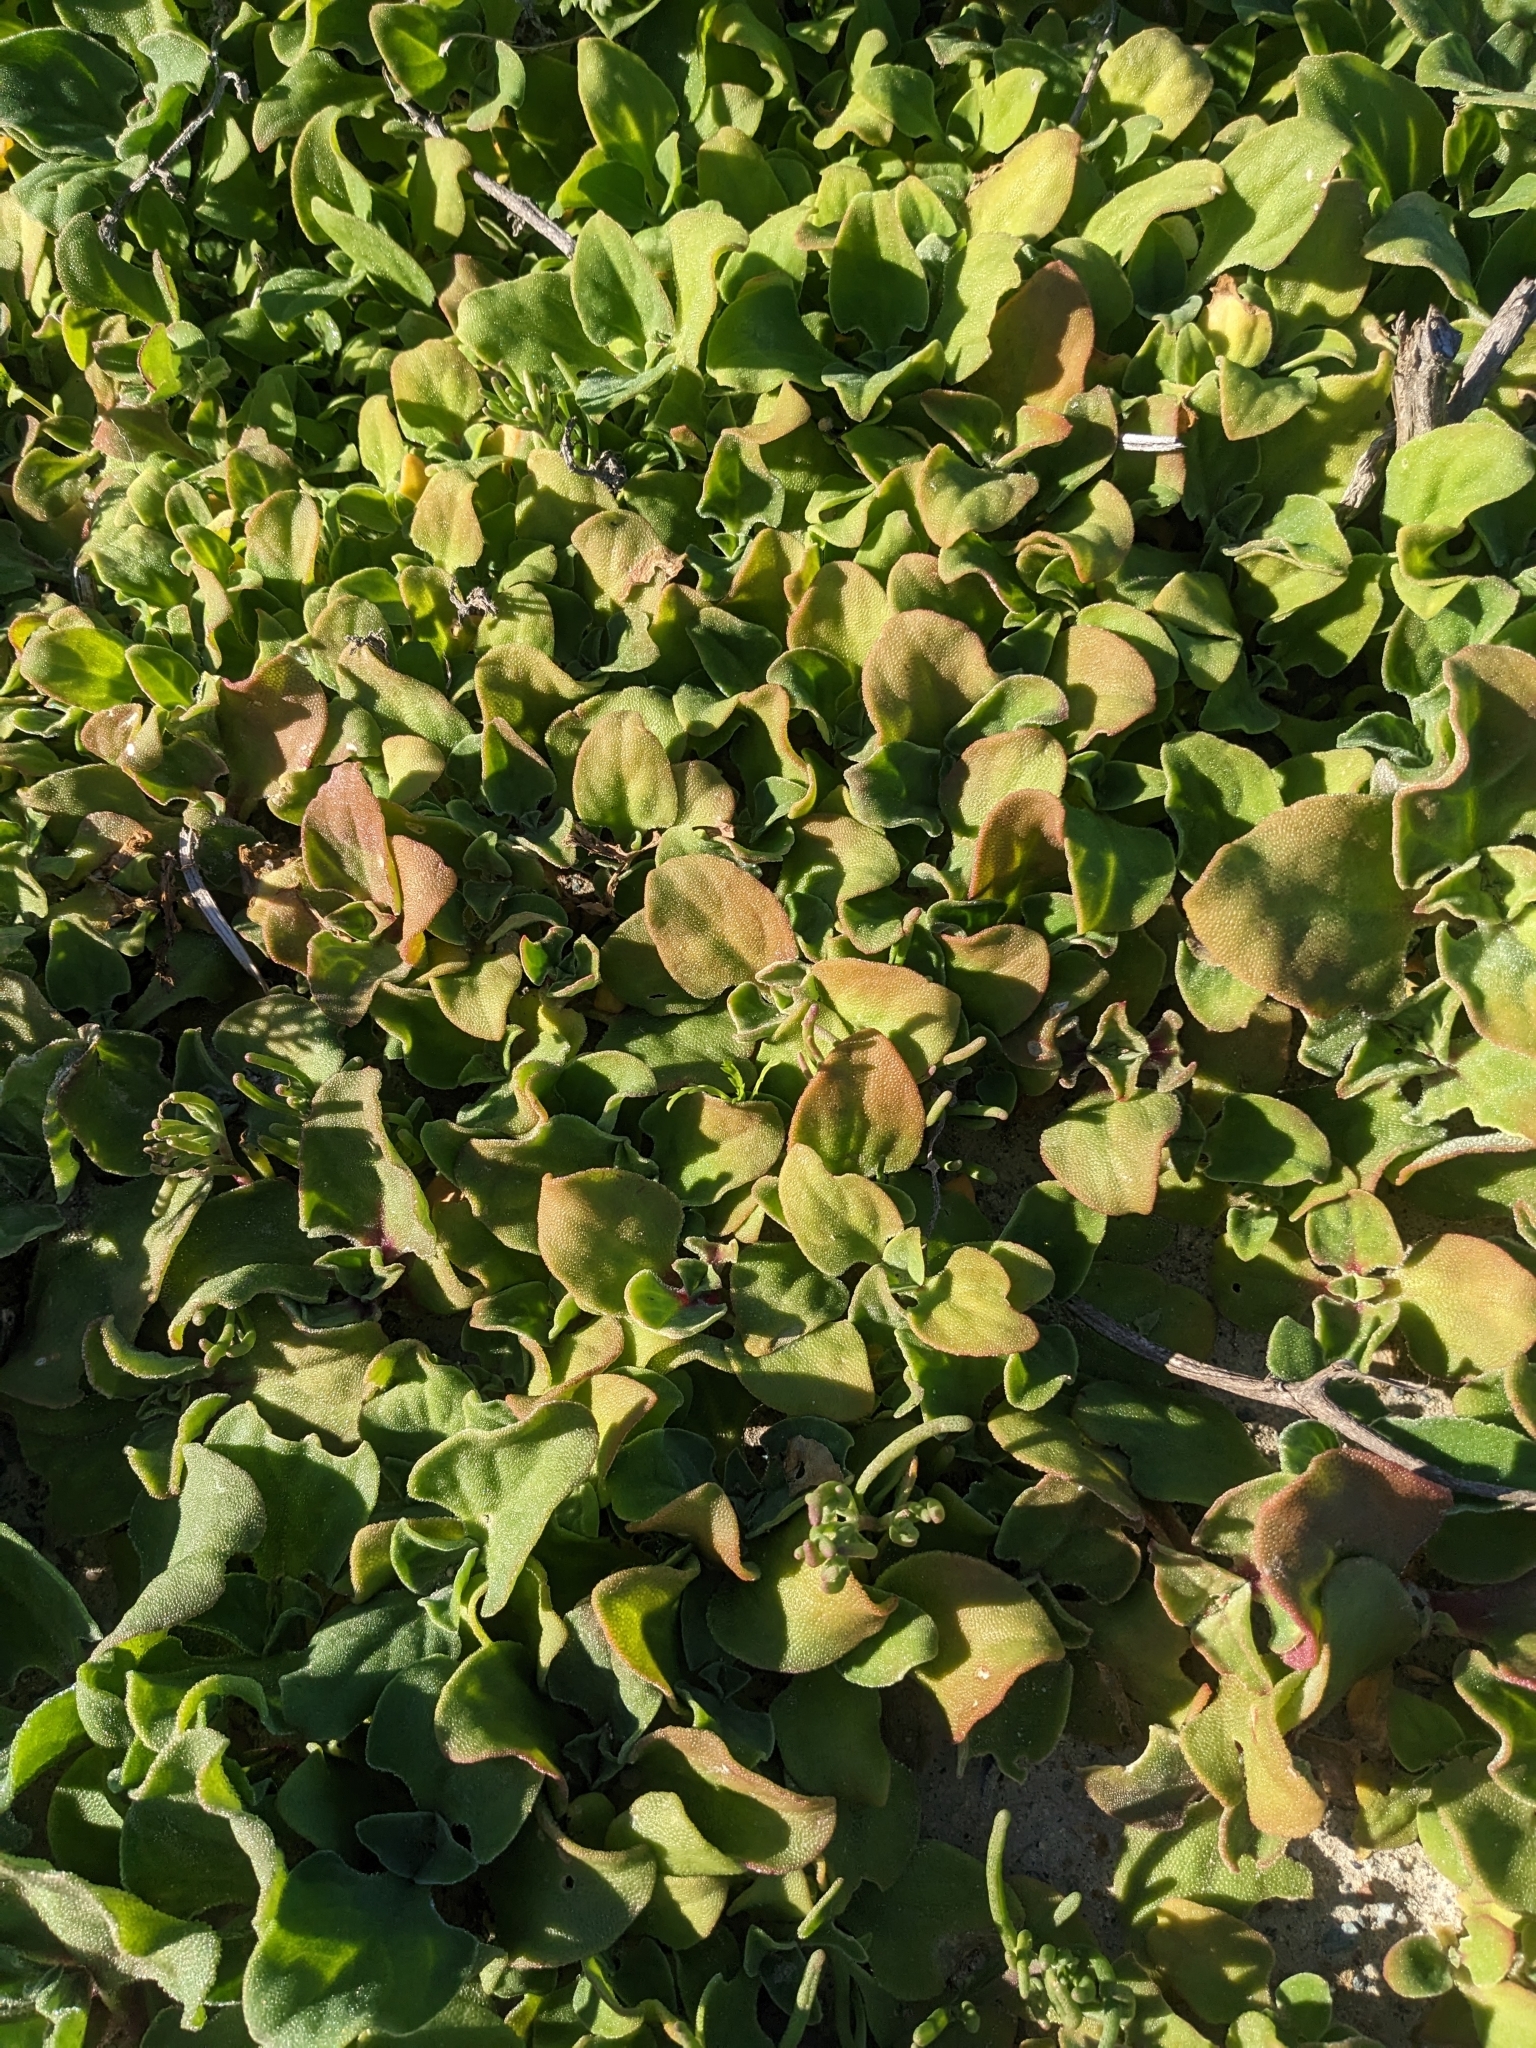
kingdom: Plantae
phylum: Tracheophyta
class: Magnoliopsida
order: Caryophyllales
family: Aizoaceae
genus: Mesembryanthemum
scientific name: Mesembryanthemum crystallinum
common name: Common iceplant
